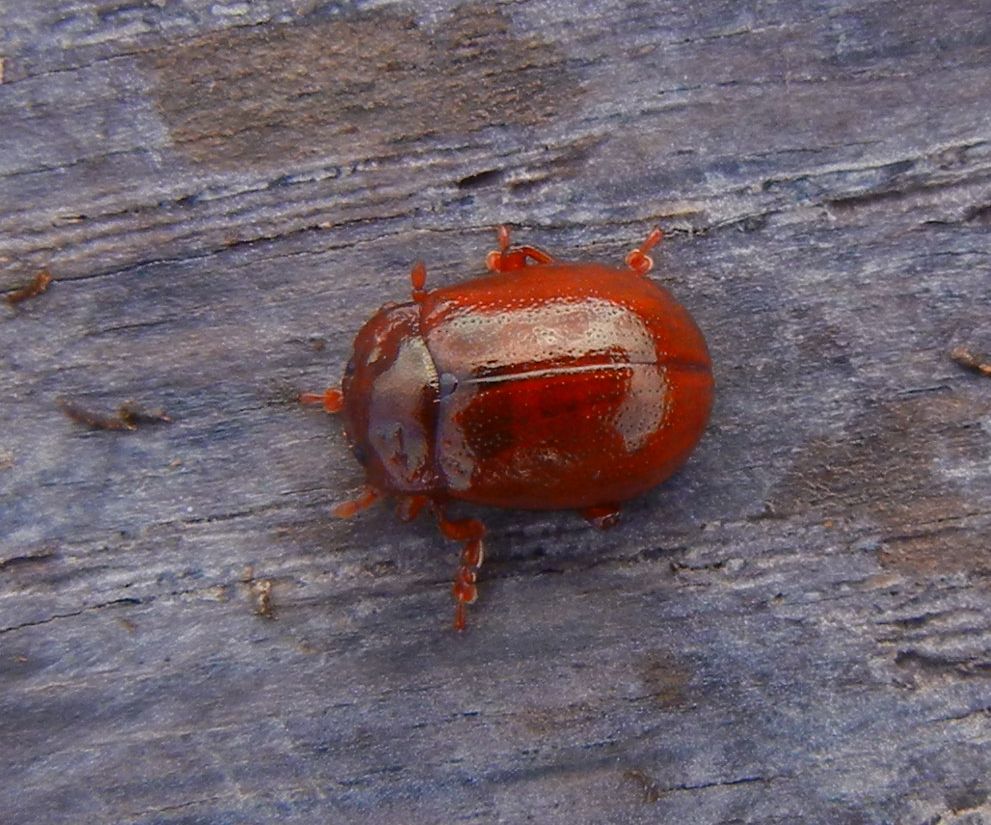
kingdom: Animalia
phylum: Arthropoda
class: Insecta
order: Coleoptera
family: Chrysomelidae
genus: Chrysolina
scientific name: Chrysolina staphylaea
